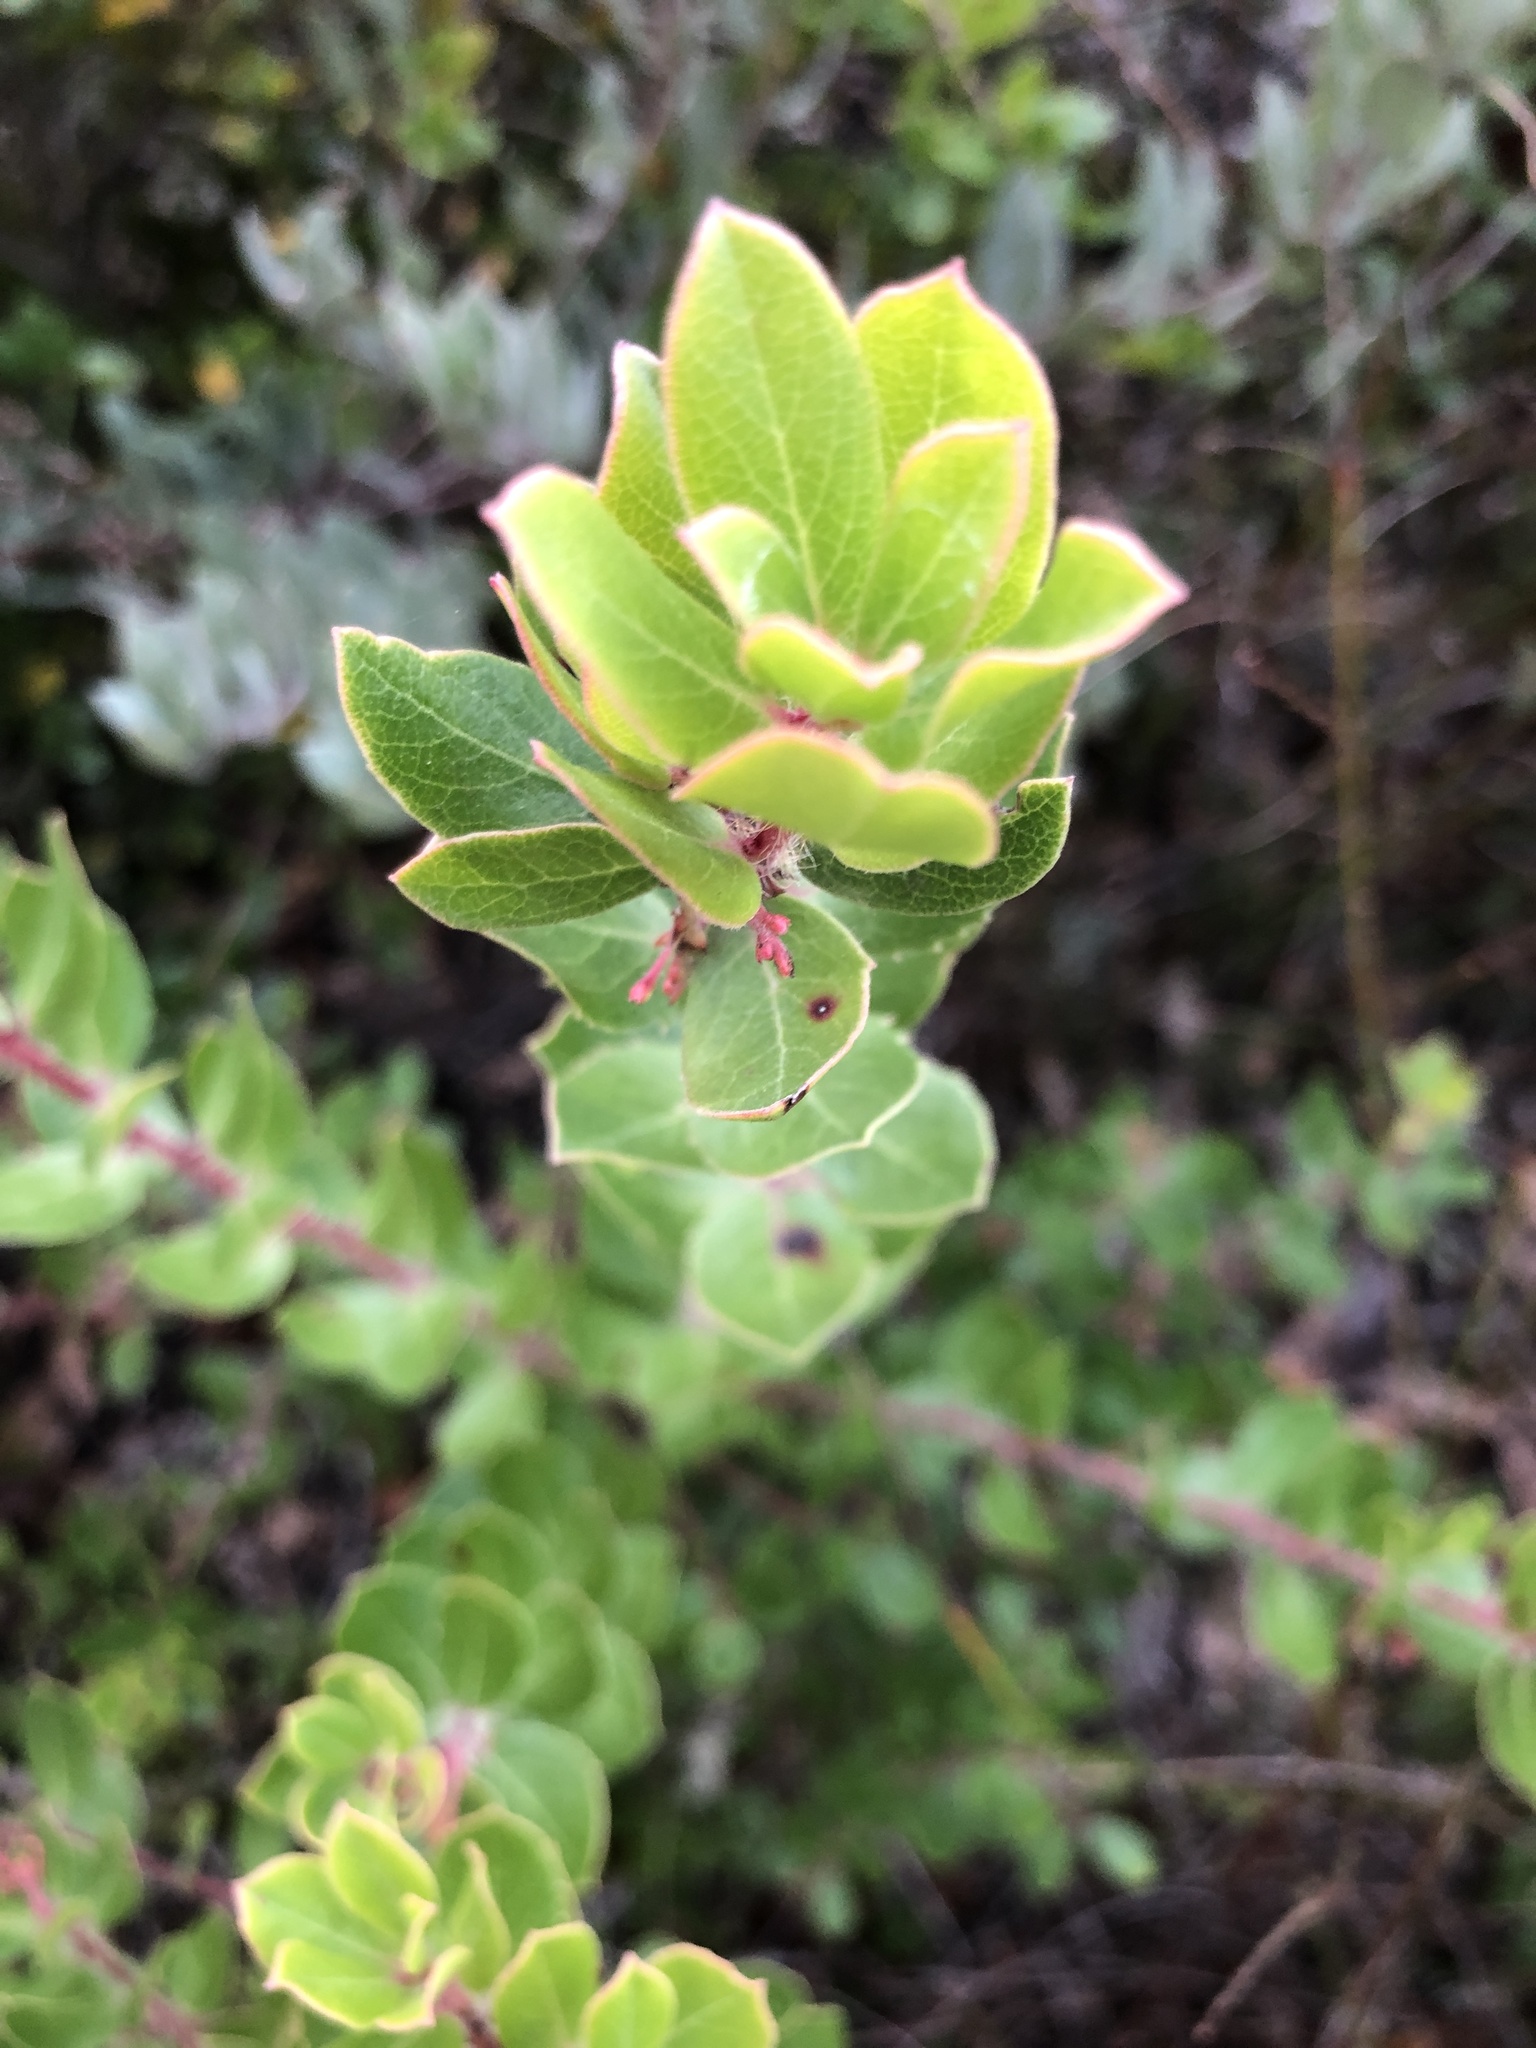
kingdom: Plantae
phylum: Tracheophyta
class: Magnoliopsida
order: Ericales
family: Ericaceae
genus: Arctostaphylos
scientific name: Arctostaphylos nummularia
